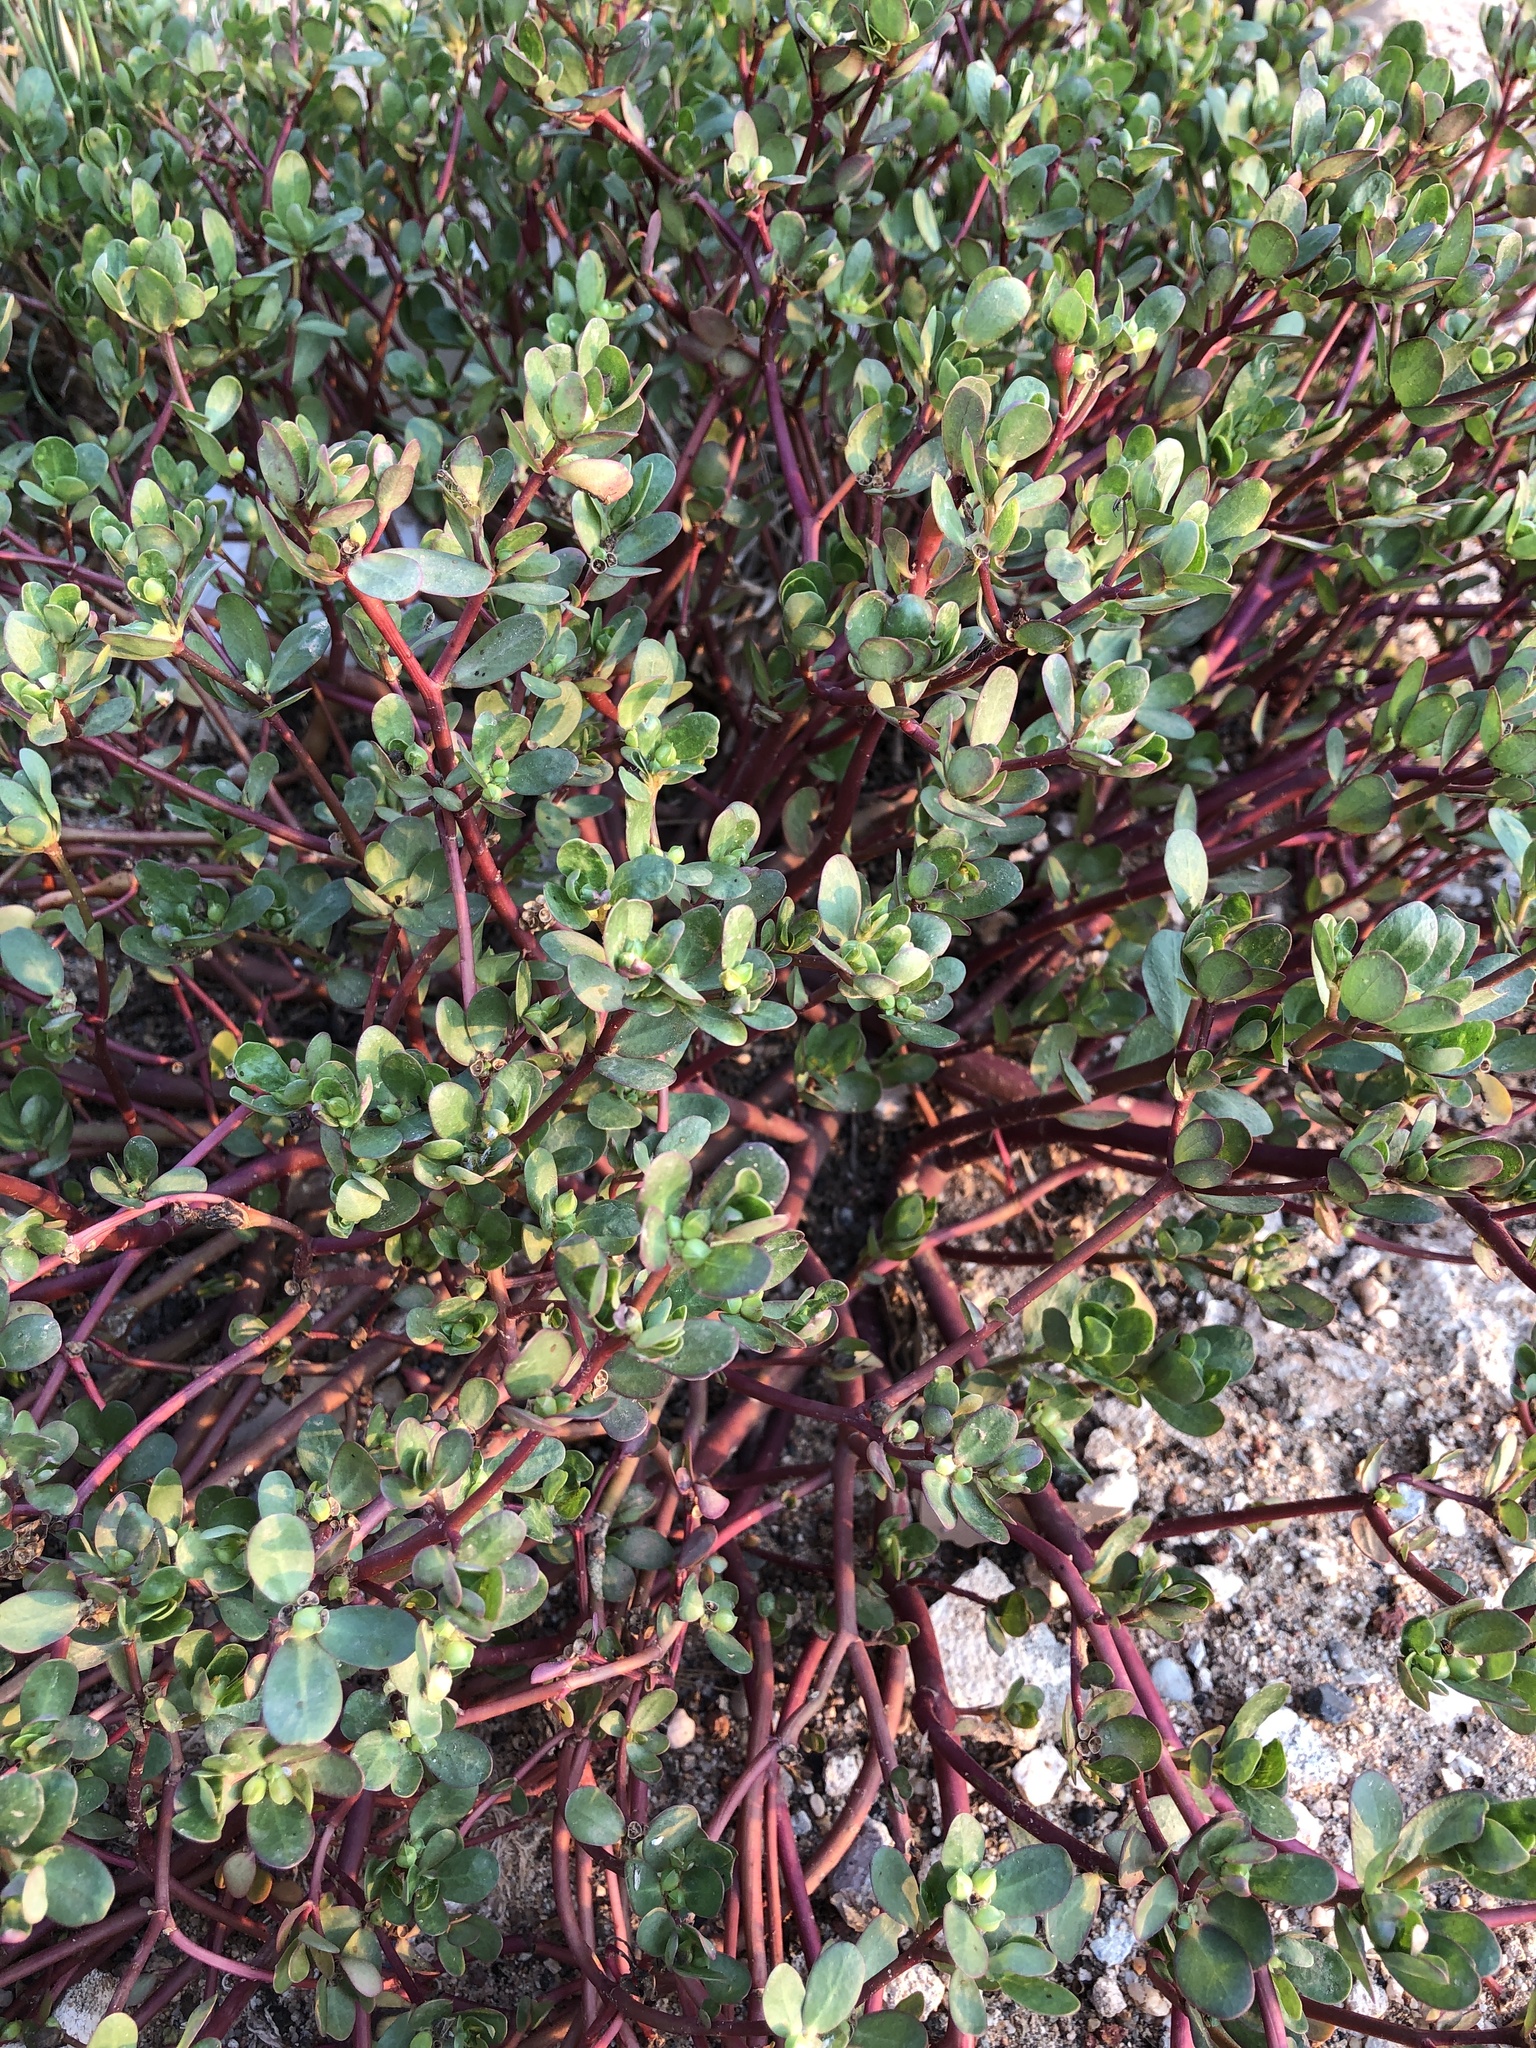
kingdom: Plantae
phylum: Tracheophyta
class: Magnoliopsida
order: Caryophyllales
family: Portulacaceae
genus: Portulaca
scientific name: Portulaca oleracea
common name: Common purslane
